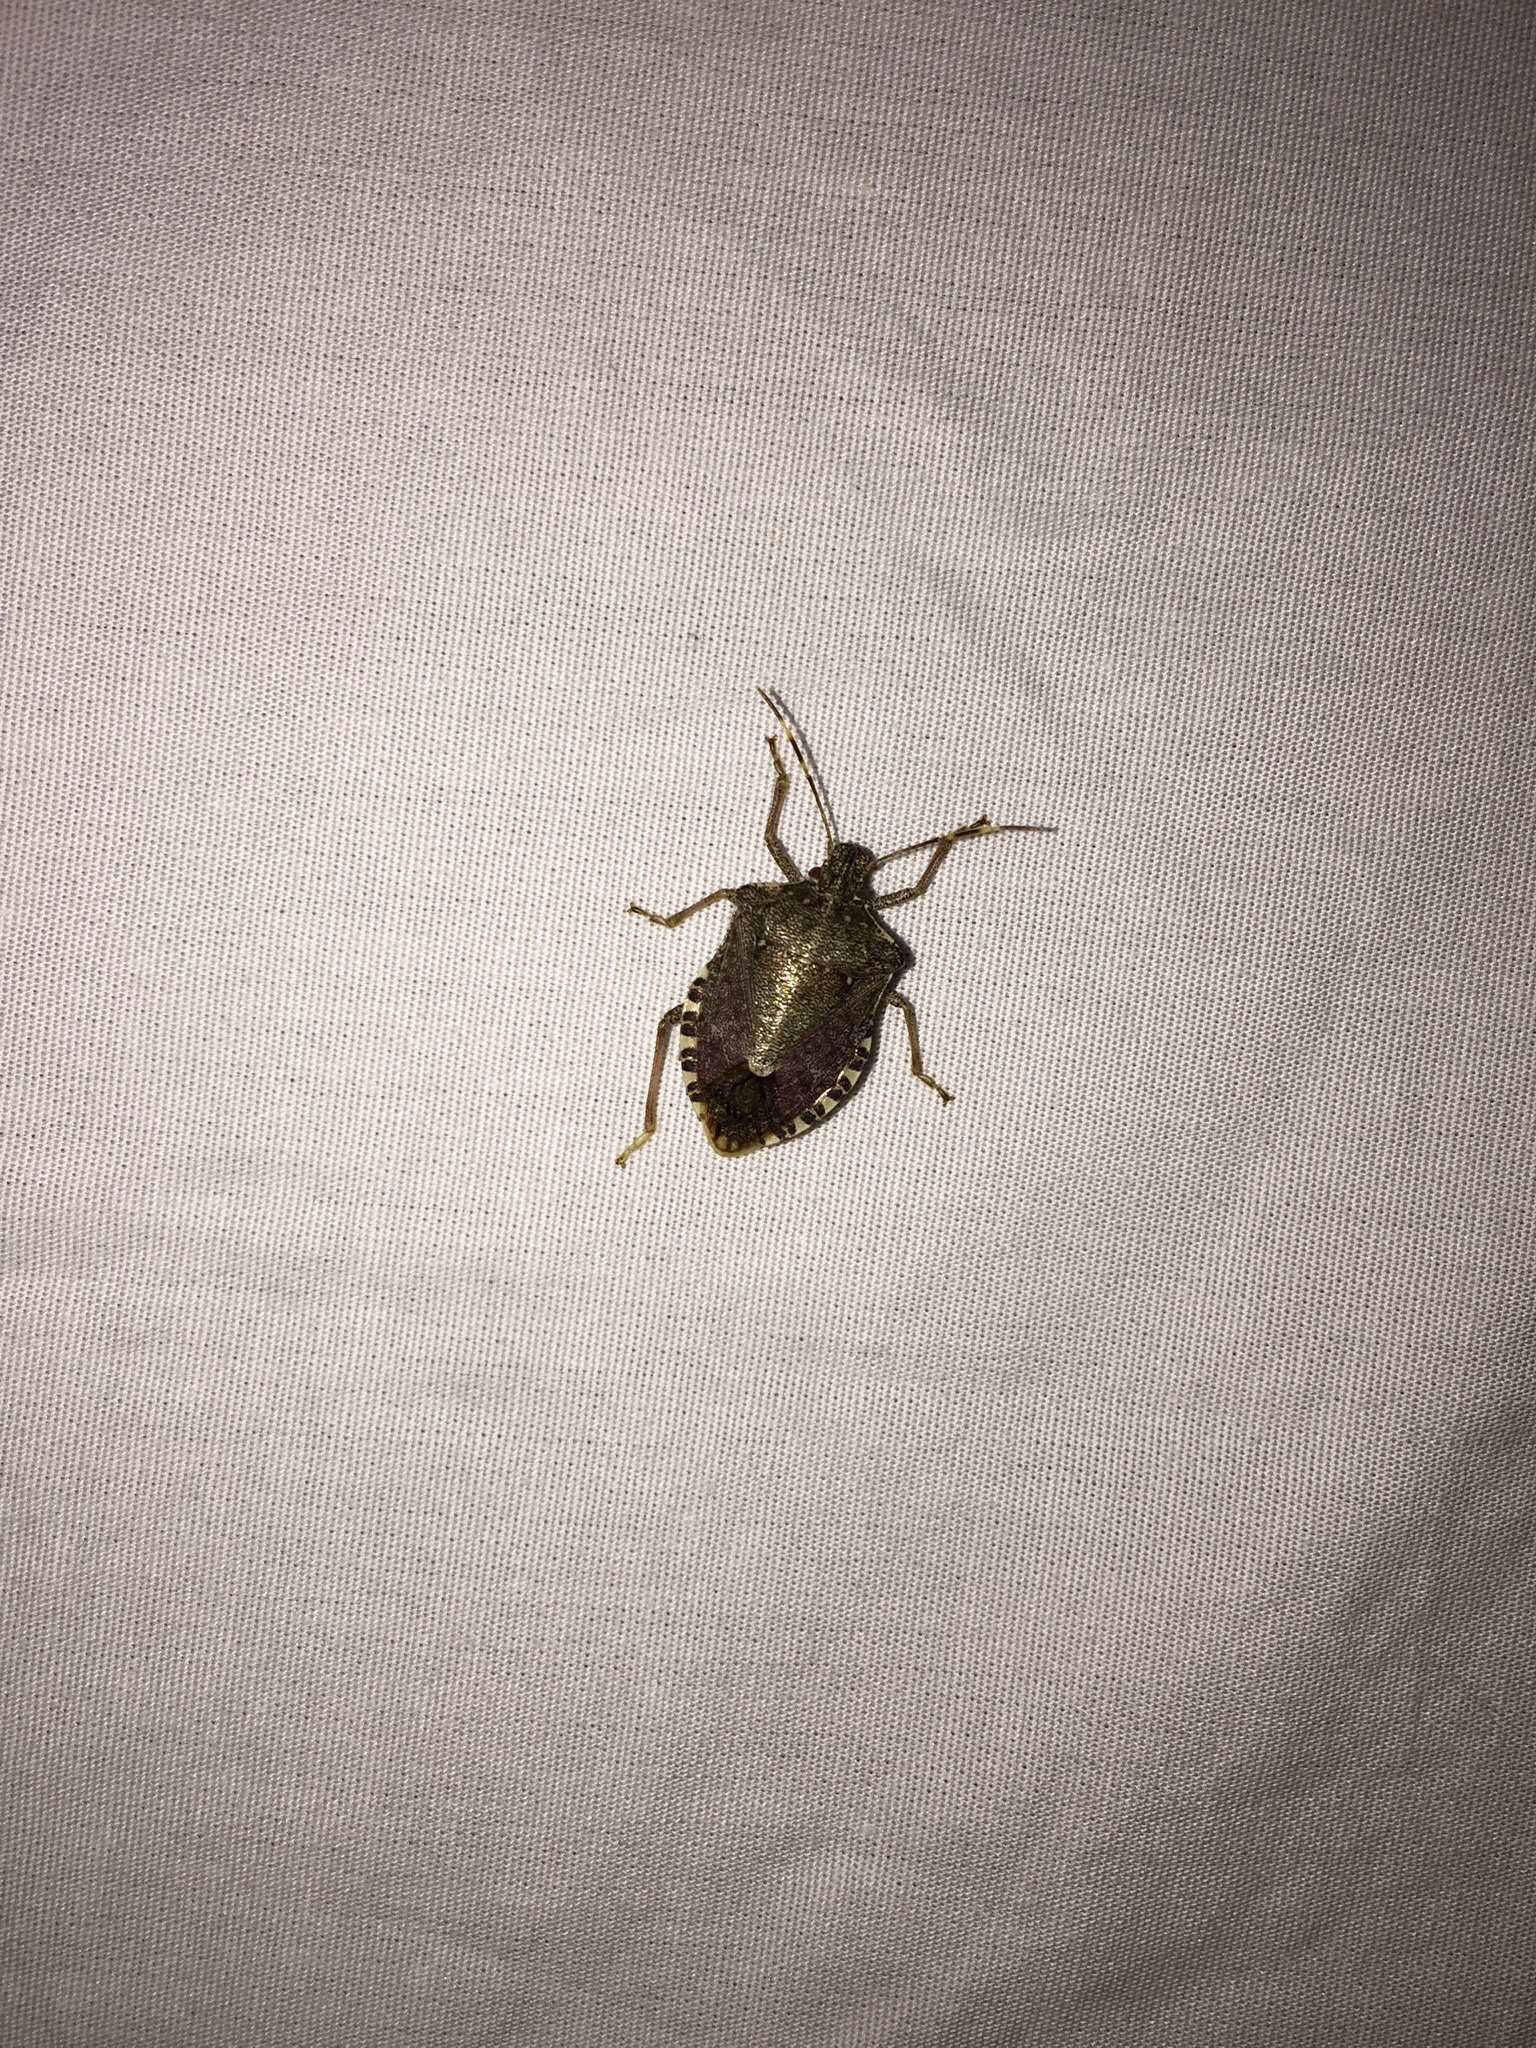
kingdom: Animalia
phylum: Arthropoda
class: Insecta
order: Hemiptera
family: Pentatomidae
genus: Halyomorpha
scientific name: Halyomorpha halys
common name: Brown marmorated stink bug
